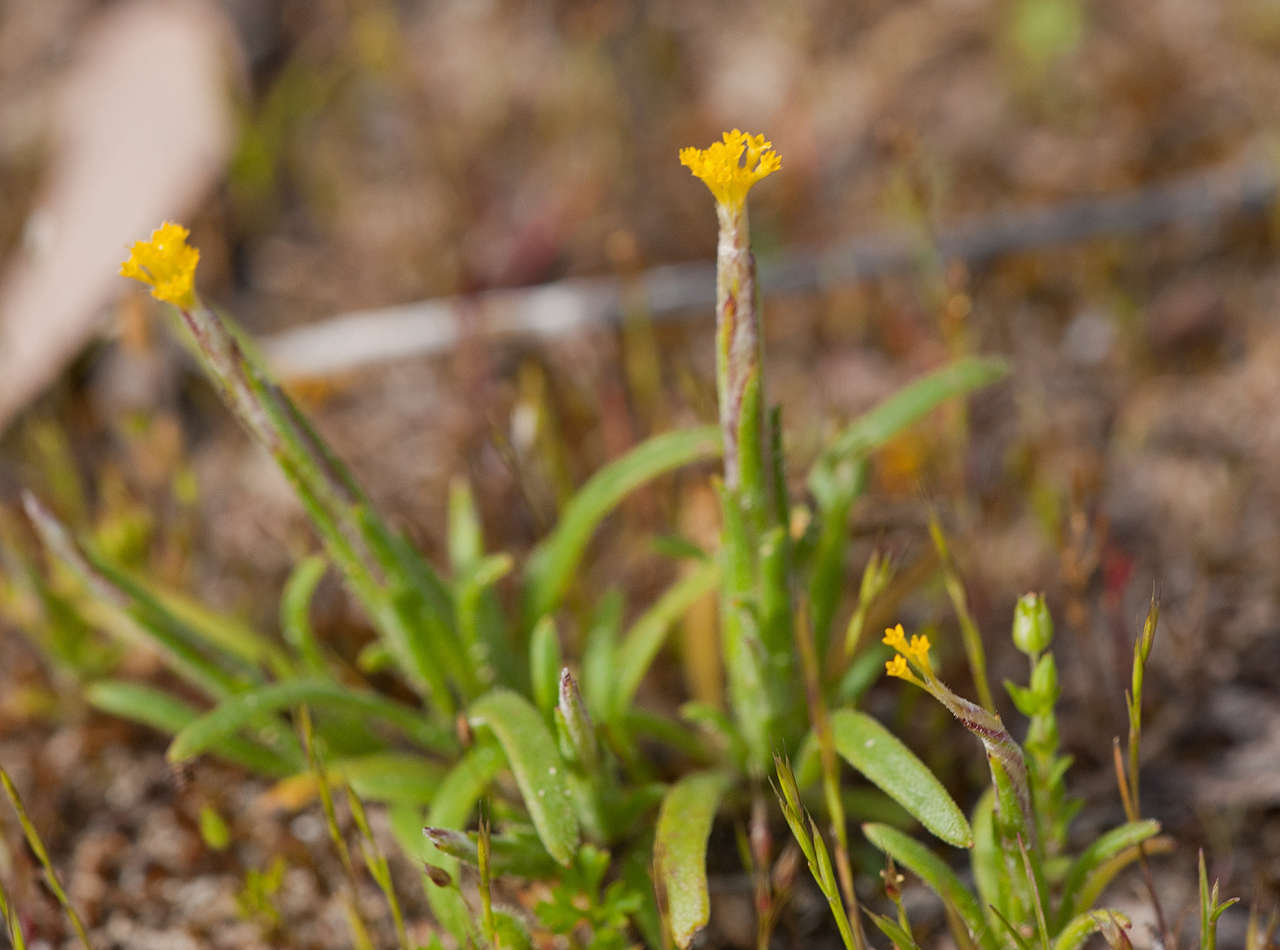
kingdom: Plantae
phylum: Tracheophyta
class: Magnoliopsida
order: Asterales
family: Asteraceae
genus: Podotheca
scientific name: Podotheca angustifolia
